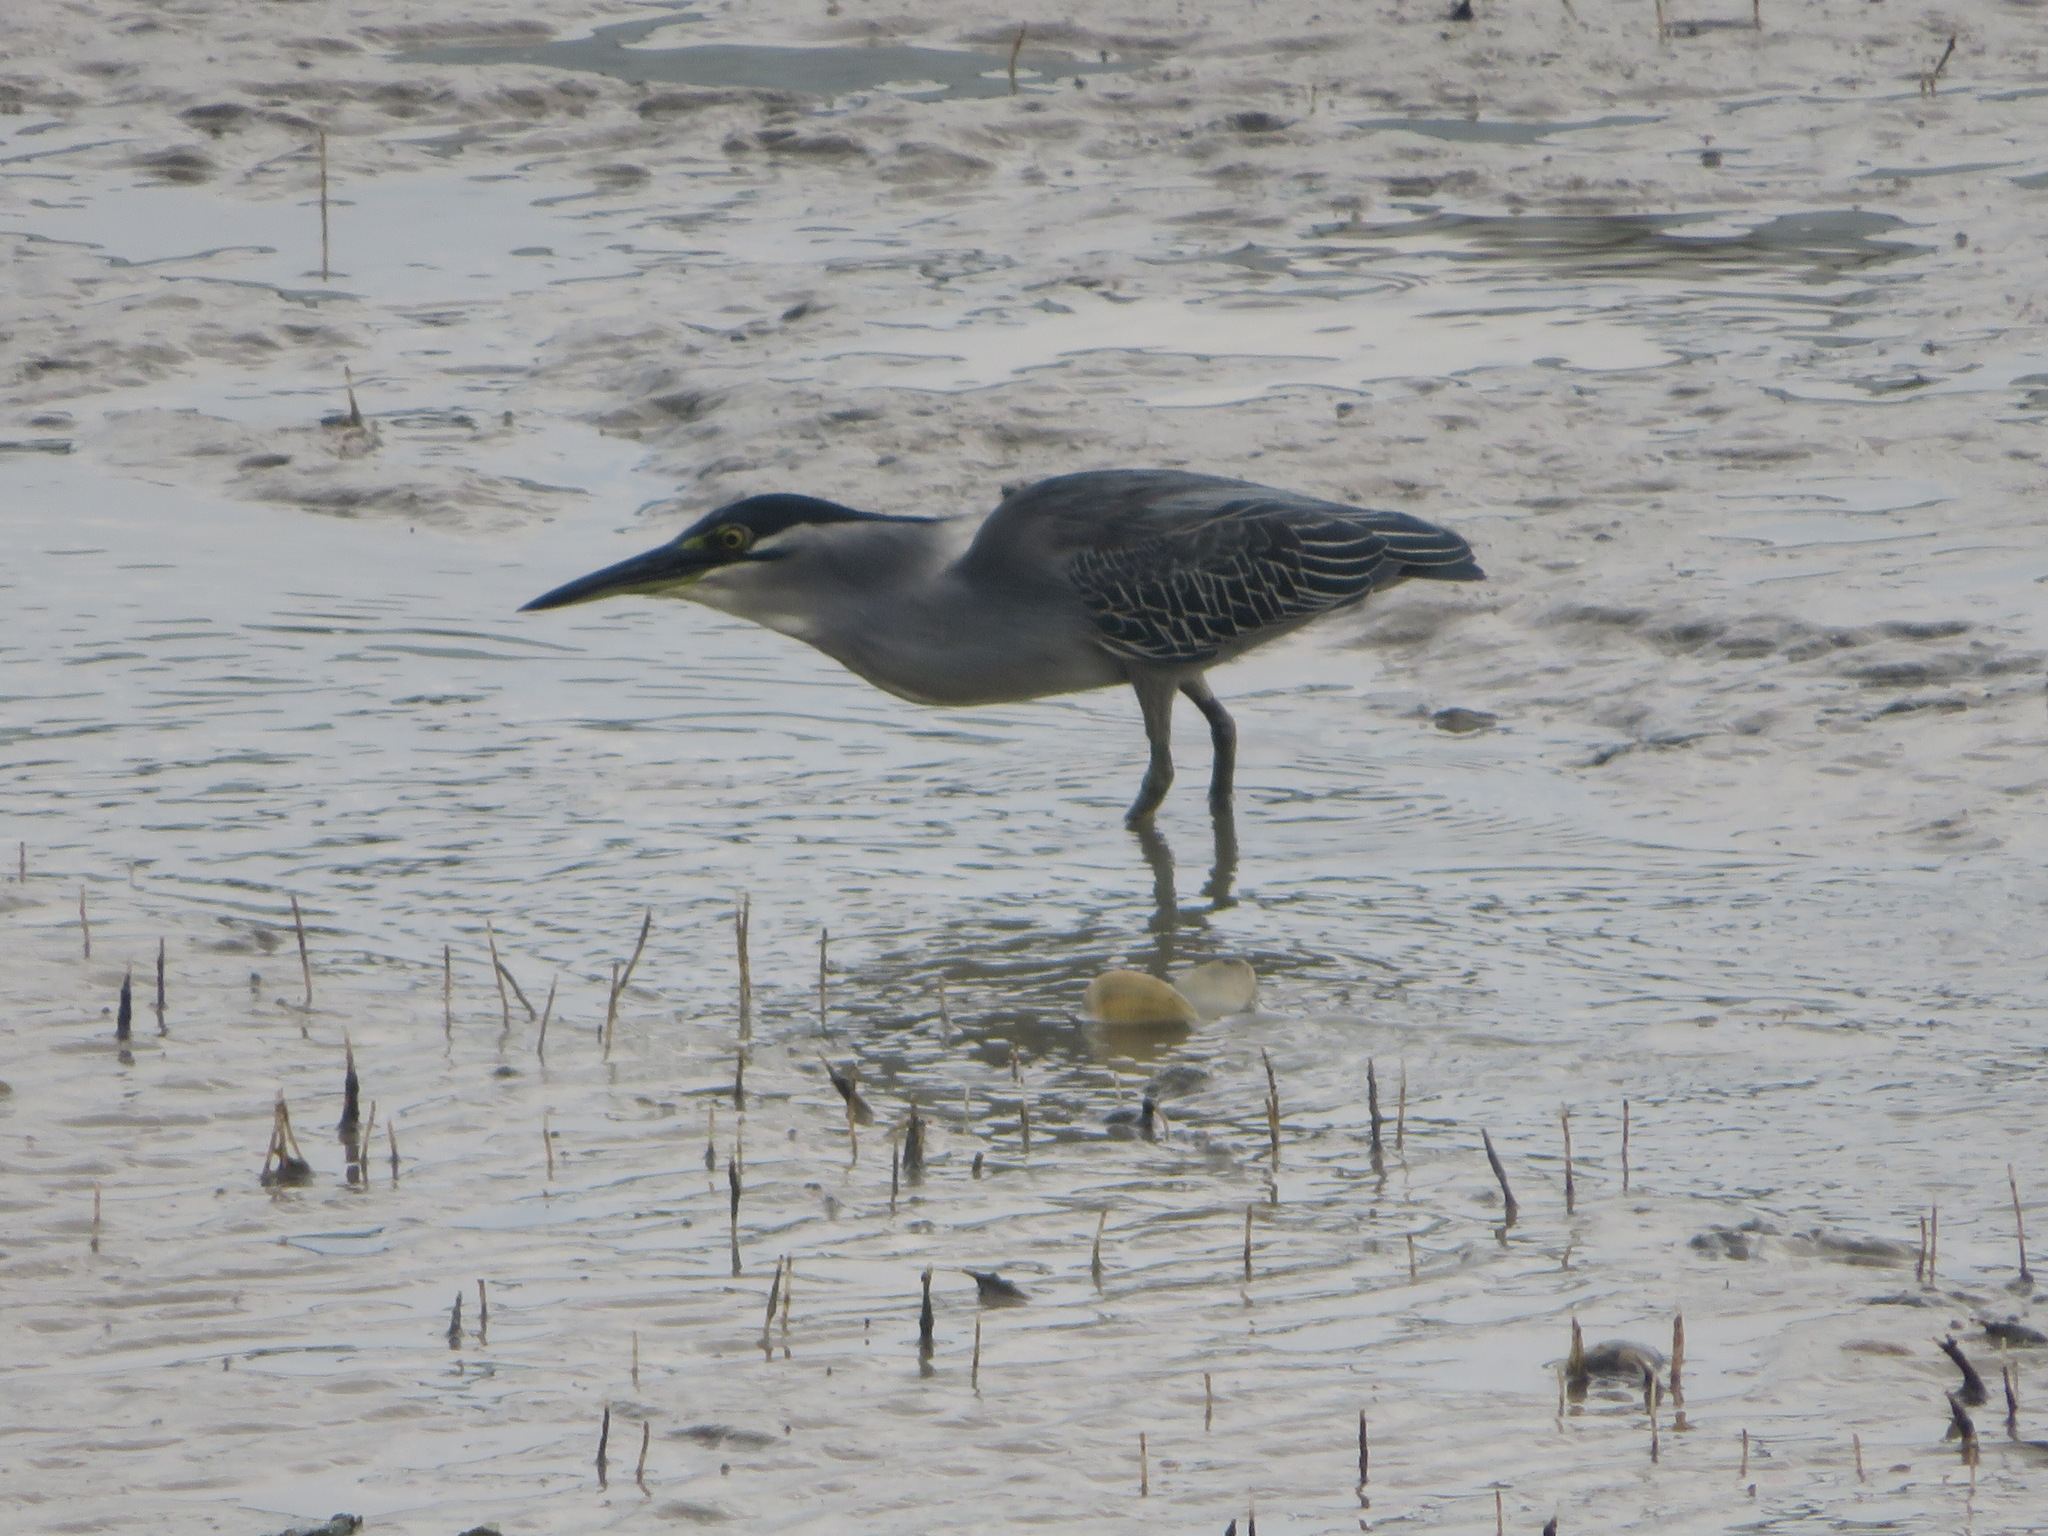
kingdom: Animalia
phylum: Chordata
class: Aves
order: Pelecaniformes
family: Ardeidae
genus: Butorides
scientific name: Butorides striata
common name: Striated heron
